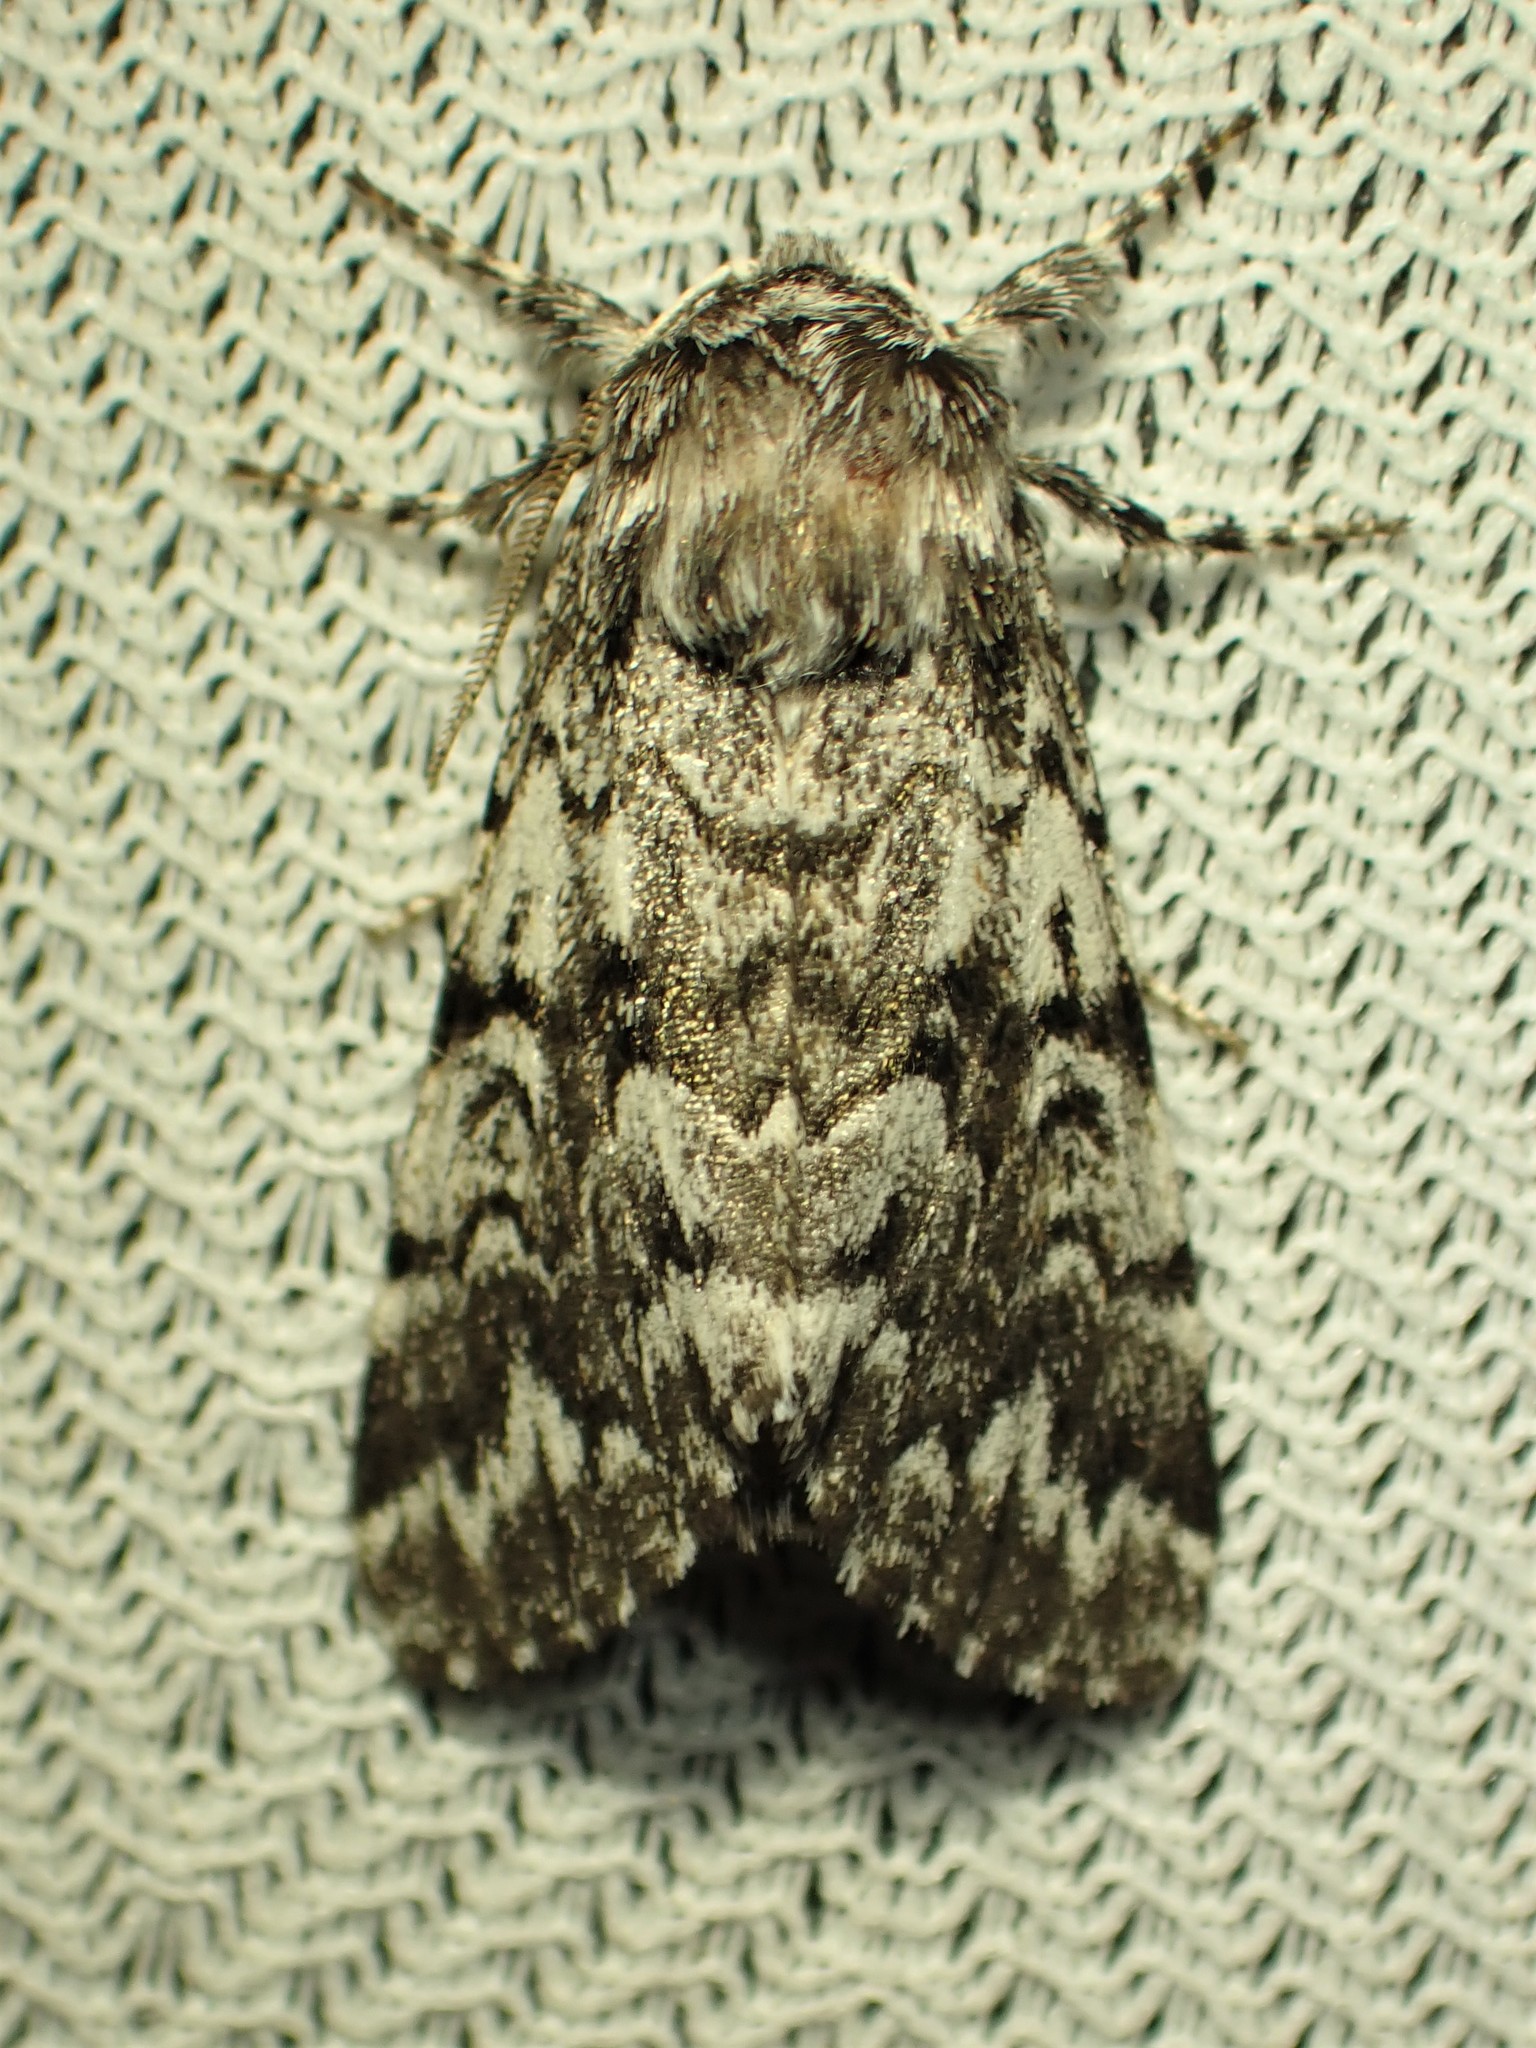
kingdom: Animalia
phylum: Arthropoda
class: Insecta
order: Lepidoptera
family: Noctuidae
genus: Panthea
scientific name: Panthea acronyctoides
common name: Black zigzag moth
